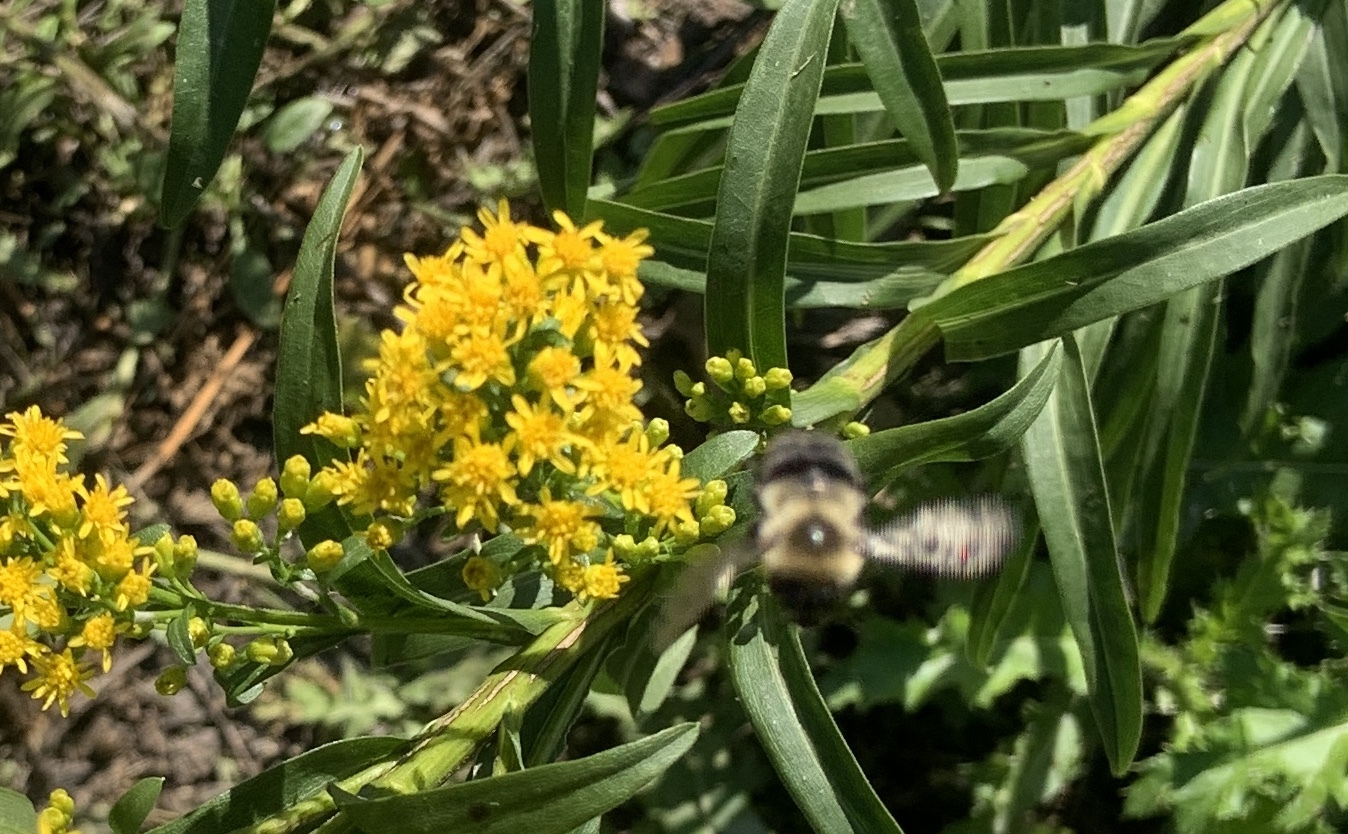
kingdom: Animalia
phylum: Arthropoda
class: Insecta
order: Hymenoptera
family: Apidae
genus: Bombus
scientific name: Bombus impatiens
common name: Common eastern bumble bee
